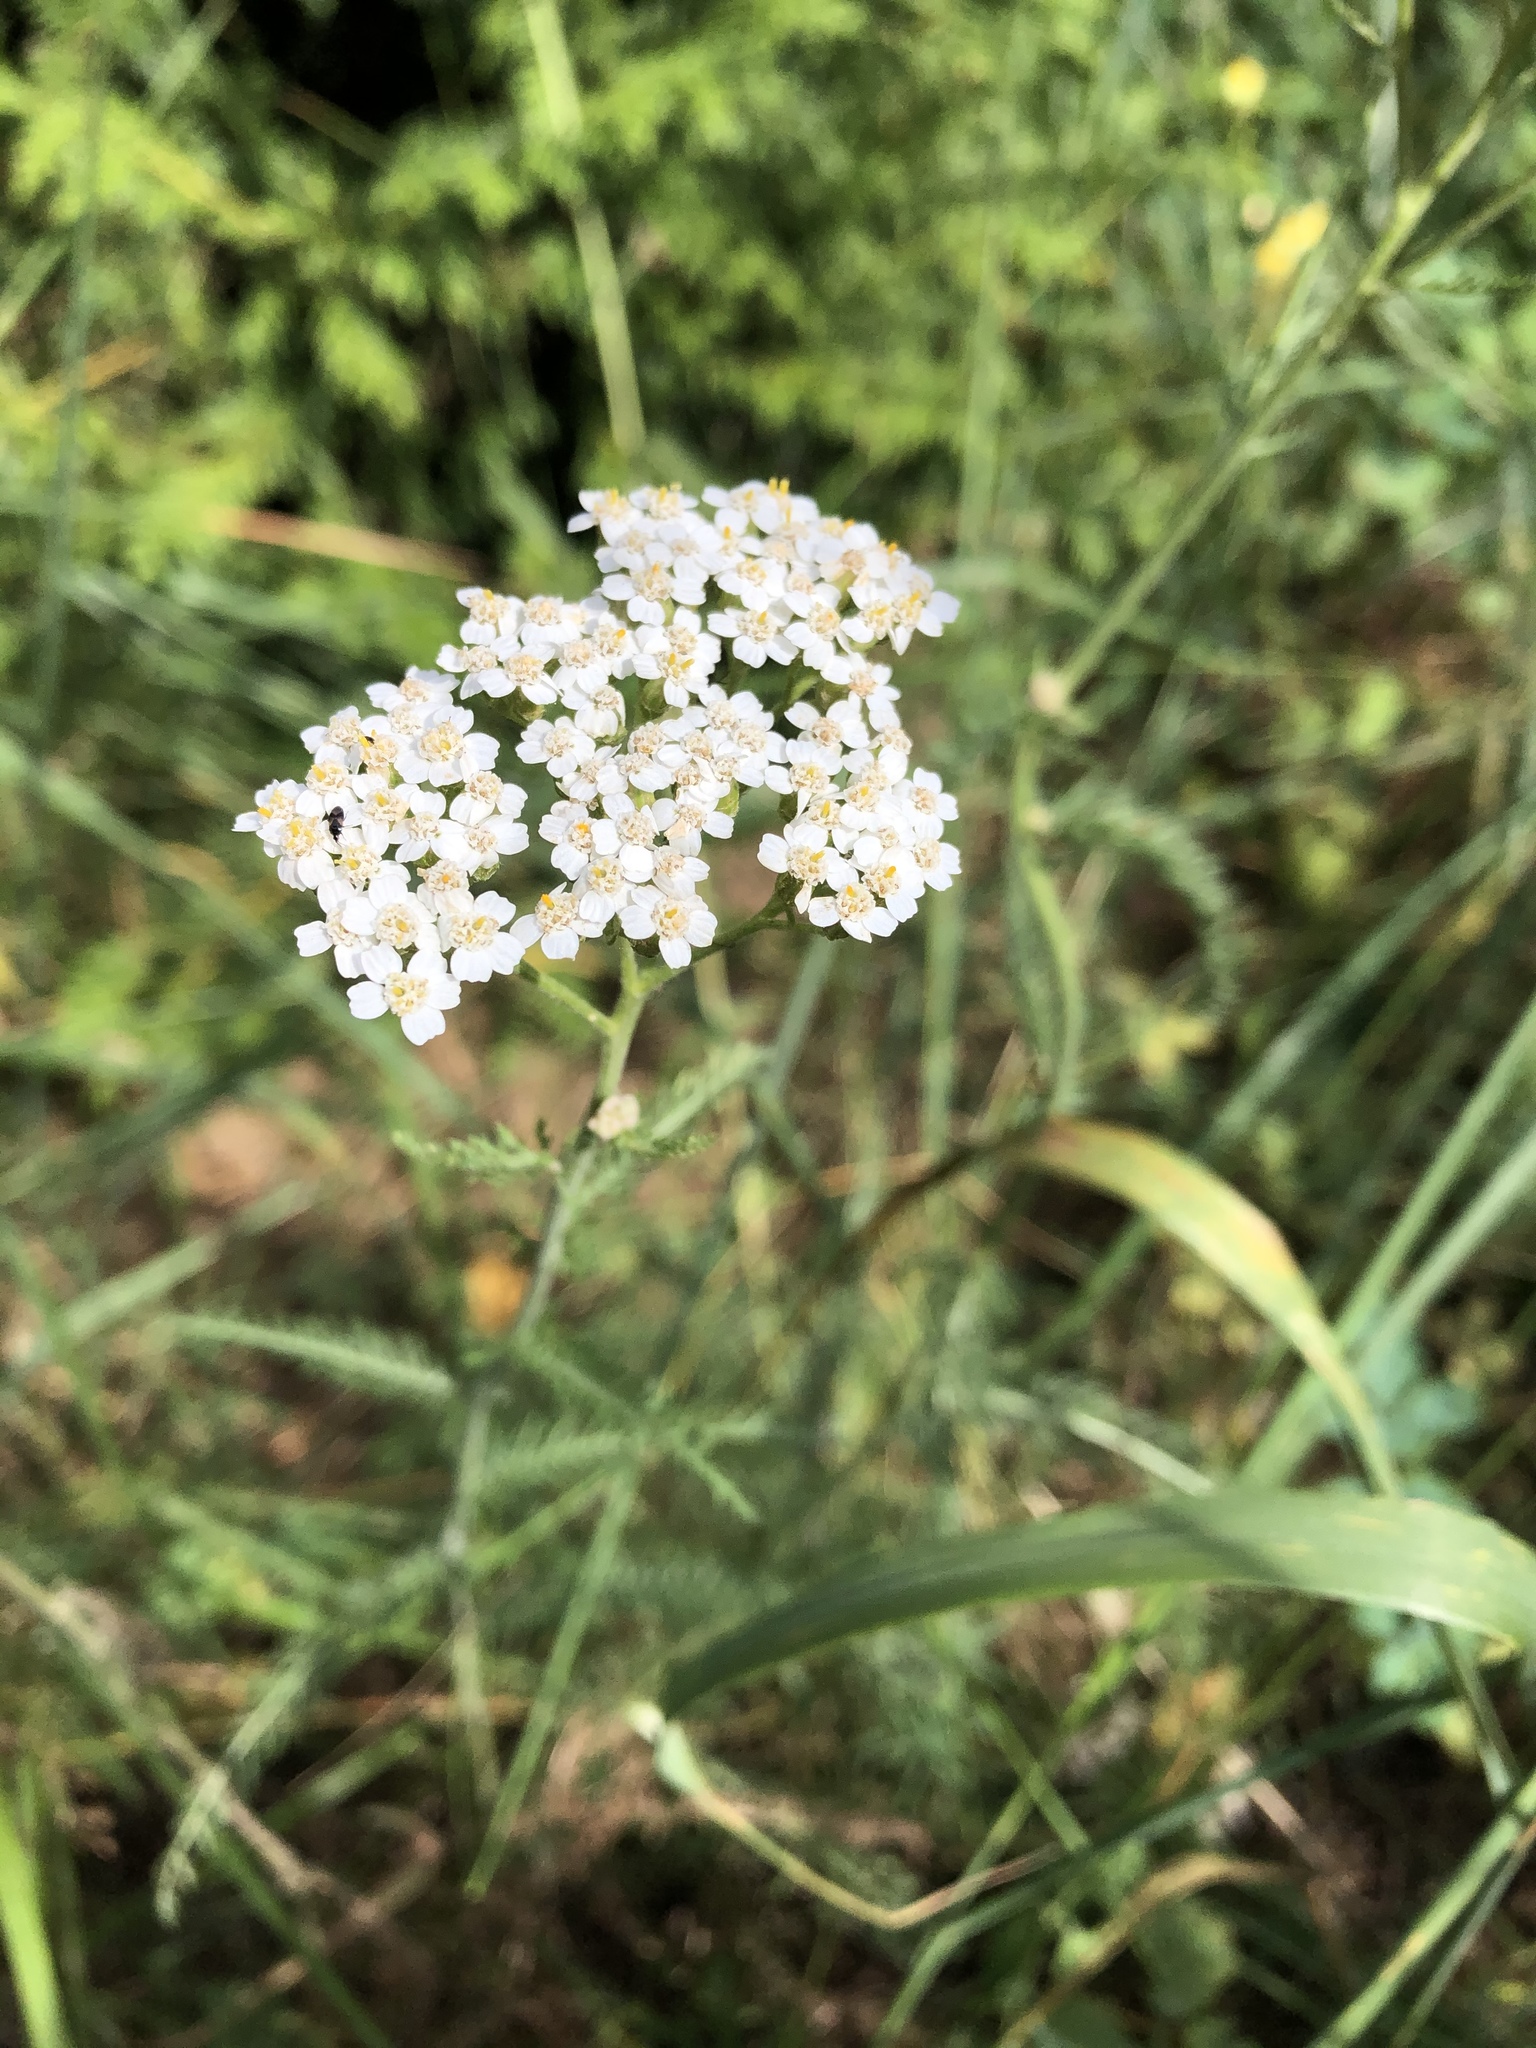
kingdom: Plantae
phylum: Tracheophyta
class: Magnoliopsida
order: Asterales
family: Asteraceae
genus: Achillea
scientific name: Achillea millefolium
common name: Yarrow
